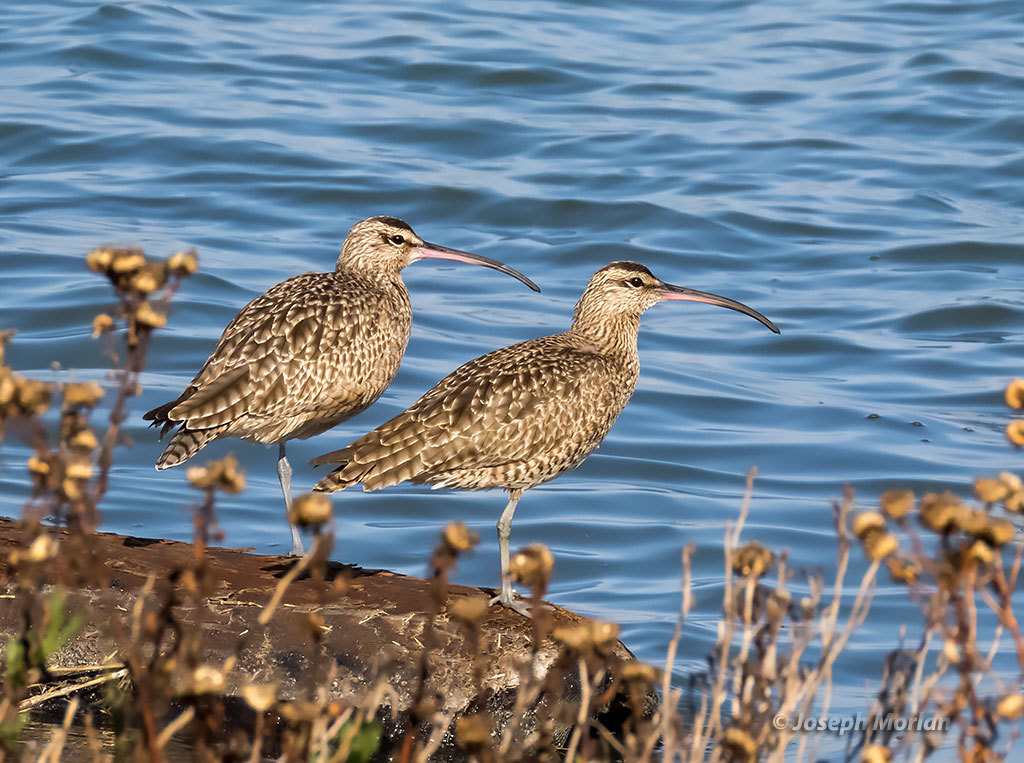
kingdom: Animalia
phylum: Chordata
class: Aves
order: Charadriiformes
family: Scolopacidae
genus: Numenius
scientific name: Numenius phaeopus
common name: Whimbrel
